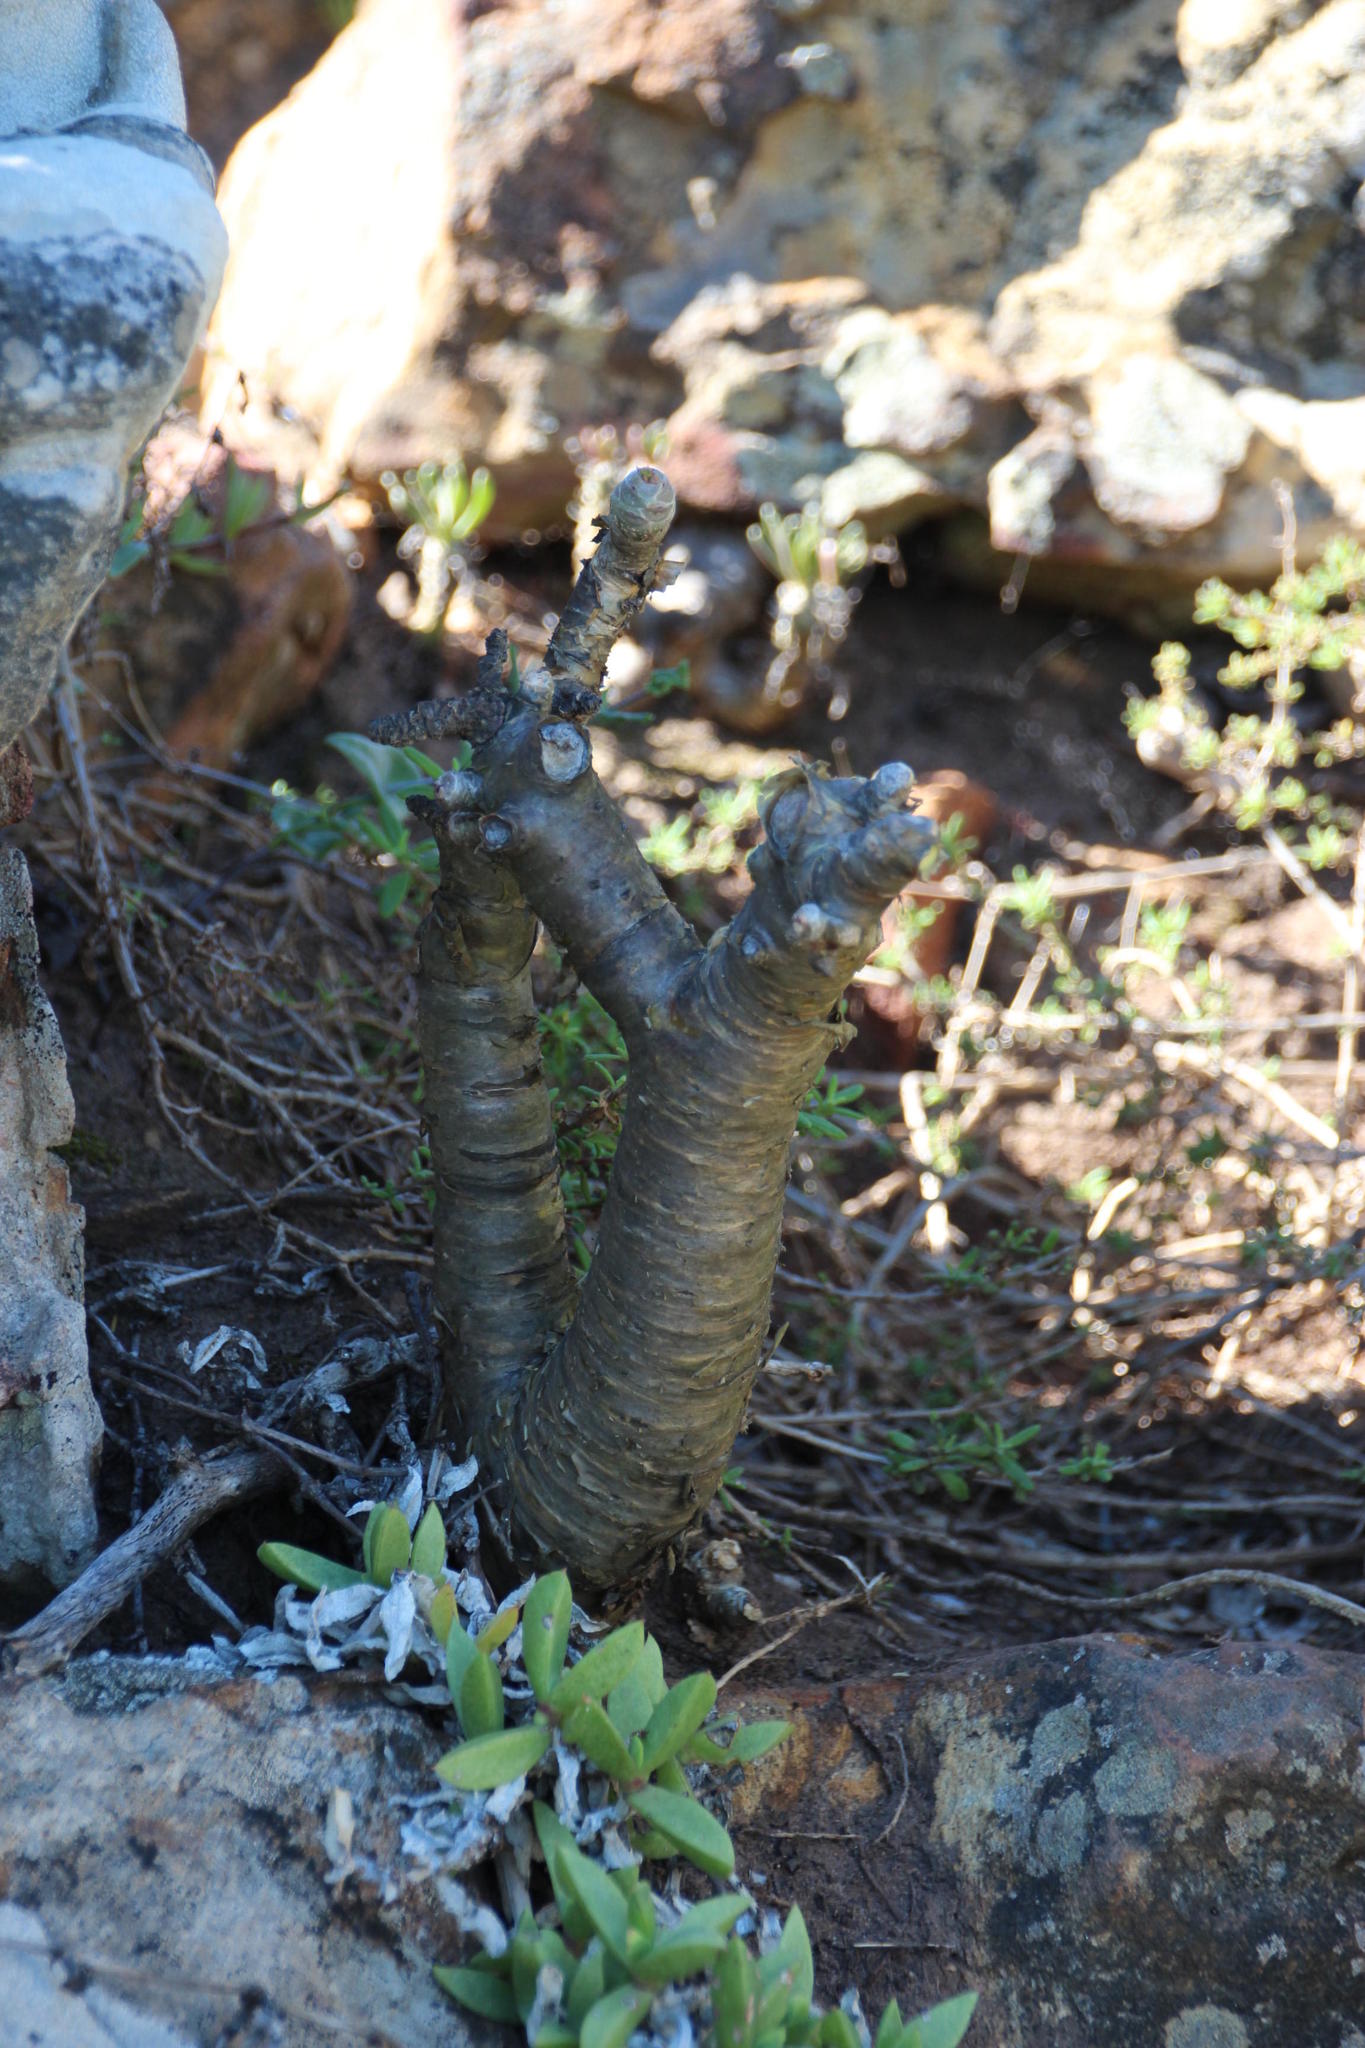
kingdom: Plantae
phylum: Tracheophyta
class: Magnoliopsida
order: Saxifragales
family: Crassulaceae
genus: Tylecodon
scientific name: Tylecodon paniculatus
